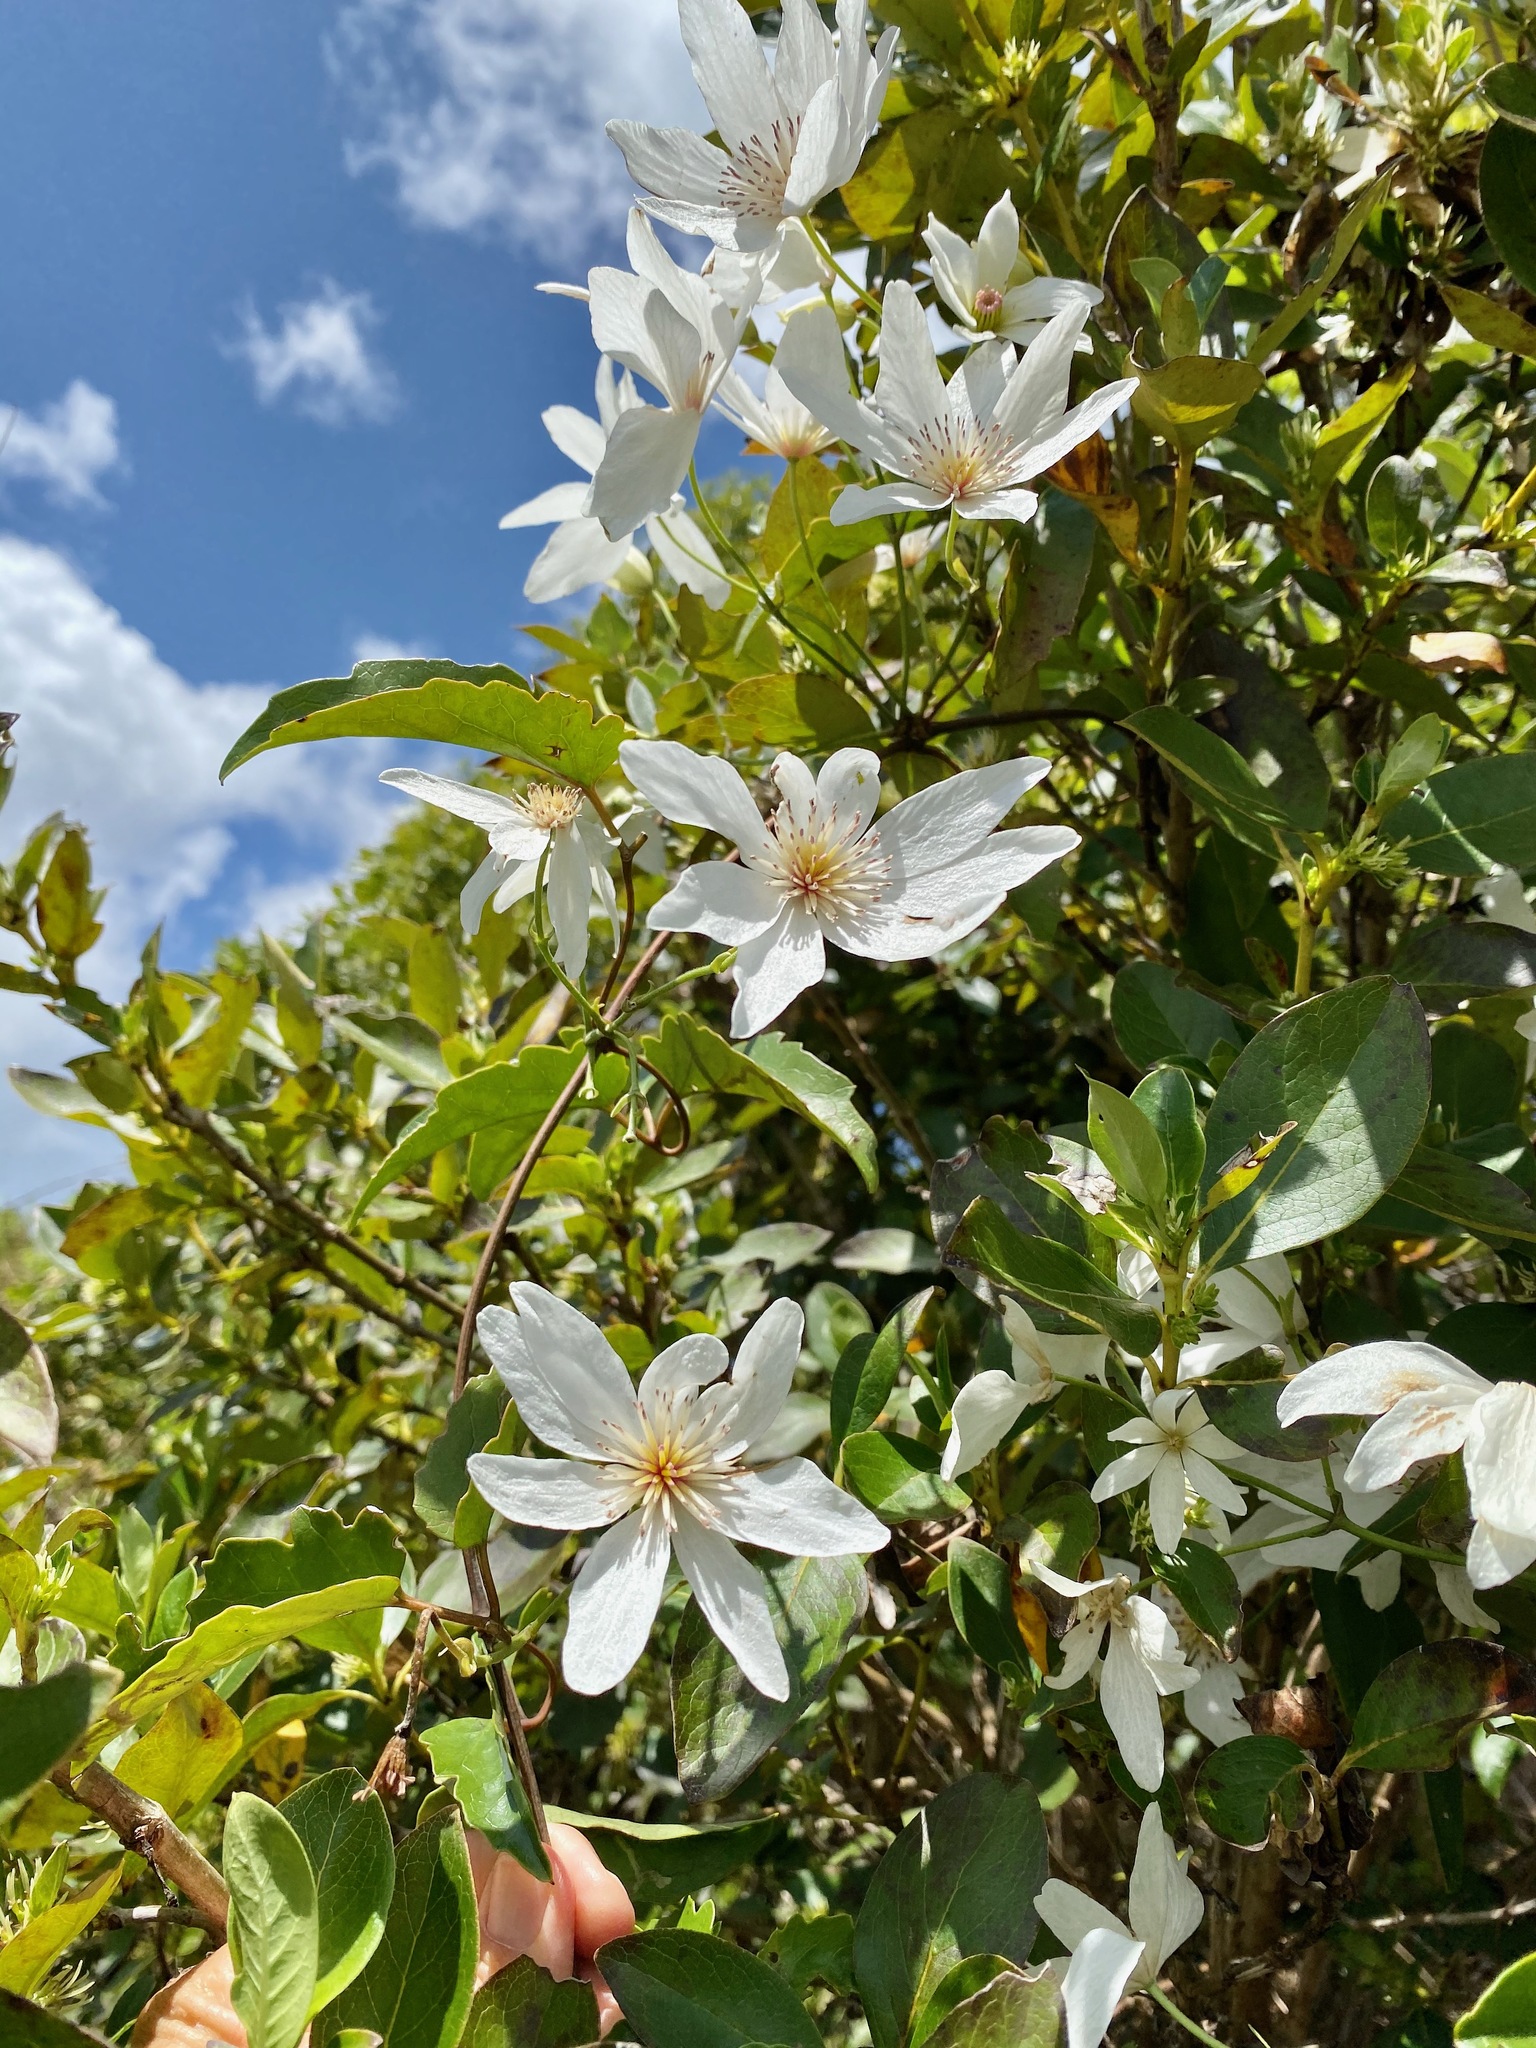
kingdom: Plantae
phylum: Tracheophyta
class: Magnoliopsida
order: Ranunculales
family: Ranunculaceae
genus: Clematis
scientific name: Clematis paniculata
